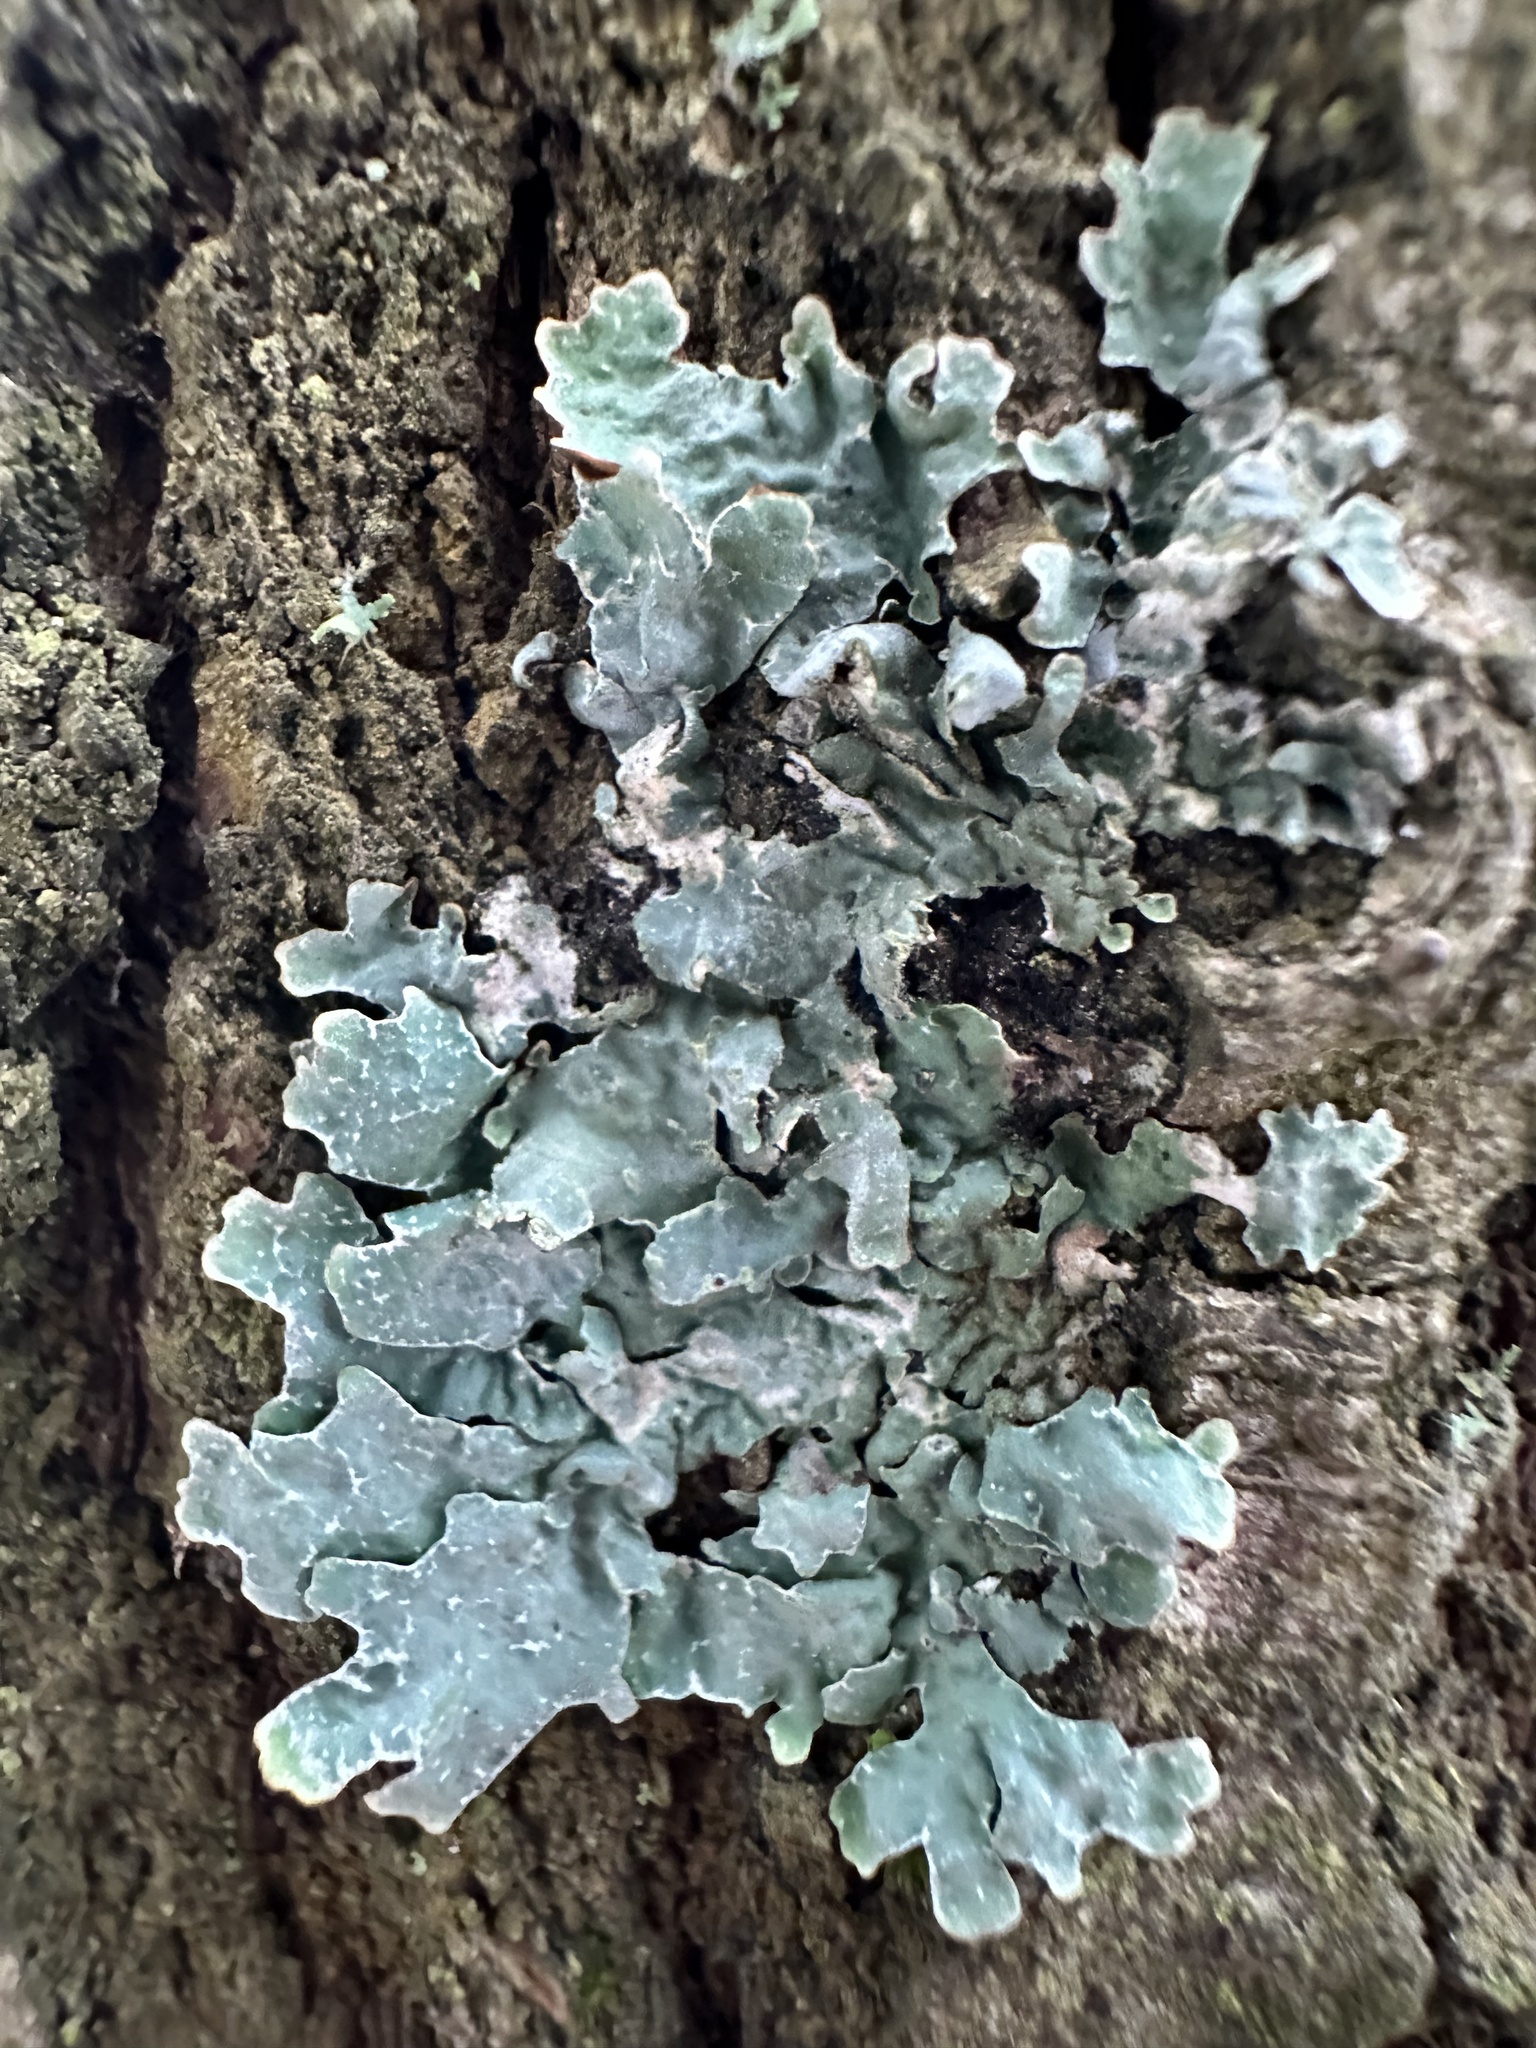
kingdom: Fungi
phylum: Ascomycota
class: Lecanoromycetes
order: Lecanorales
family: Parmeliaceae
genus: Parmelia
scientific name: Parmelia sulcata
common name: Netted shield lichen
